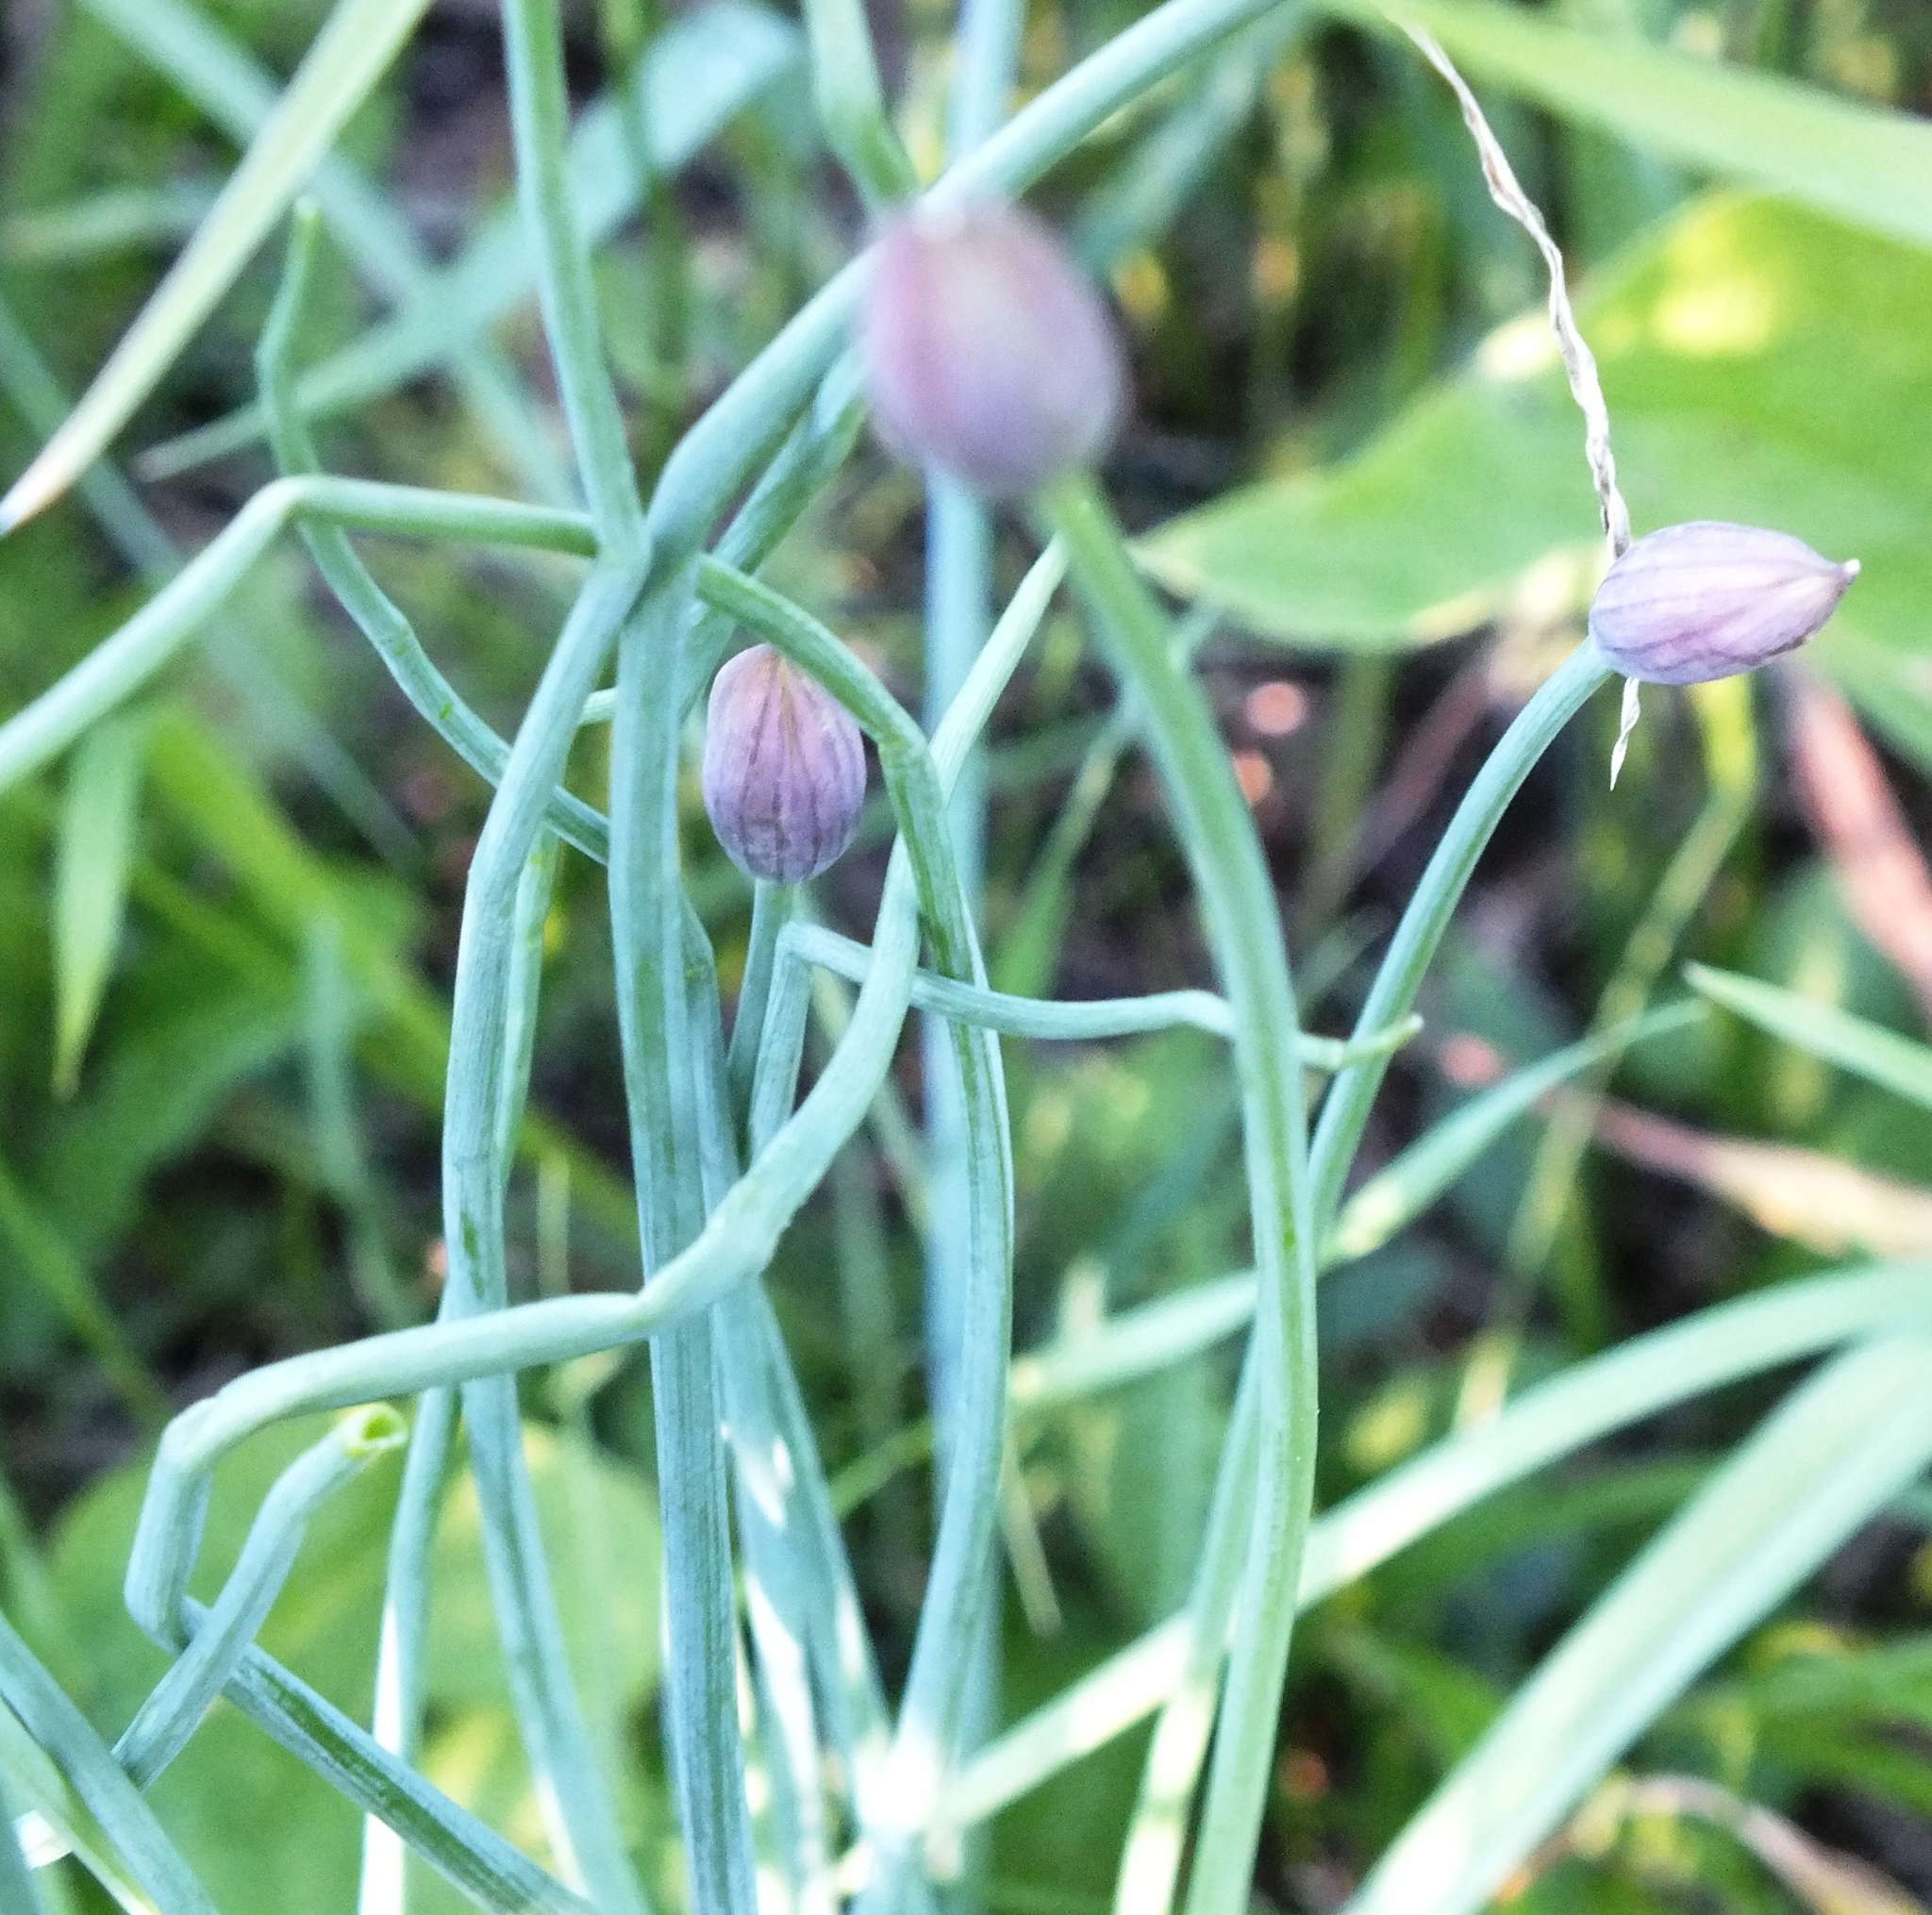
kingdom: Plantae
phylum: Tracheophyta
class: Liliopsida
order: Asparagales
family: Amaryllidaceae
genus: Allium
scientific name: Allium schoenoprasum
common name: Chives
